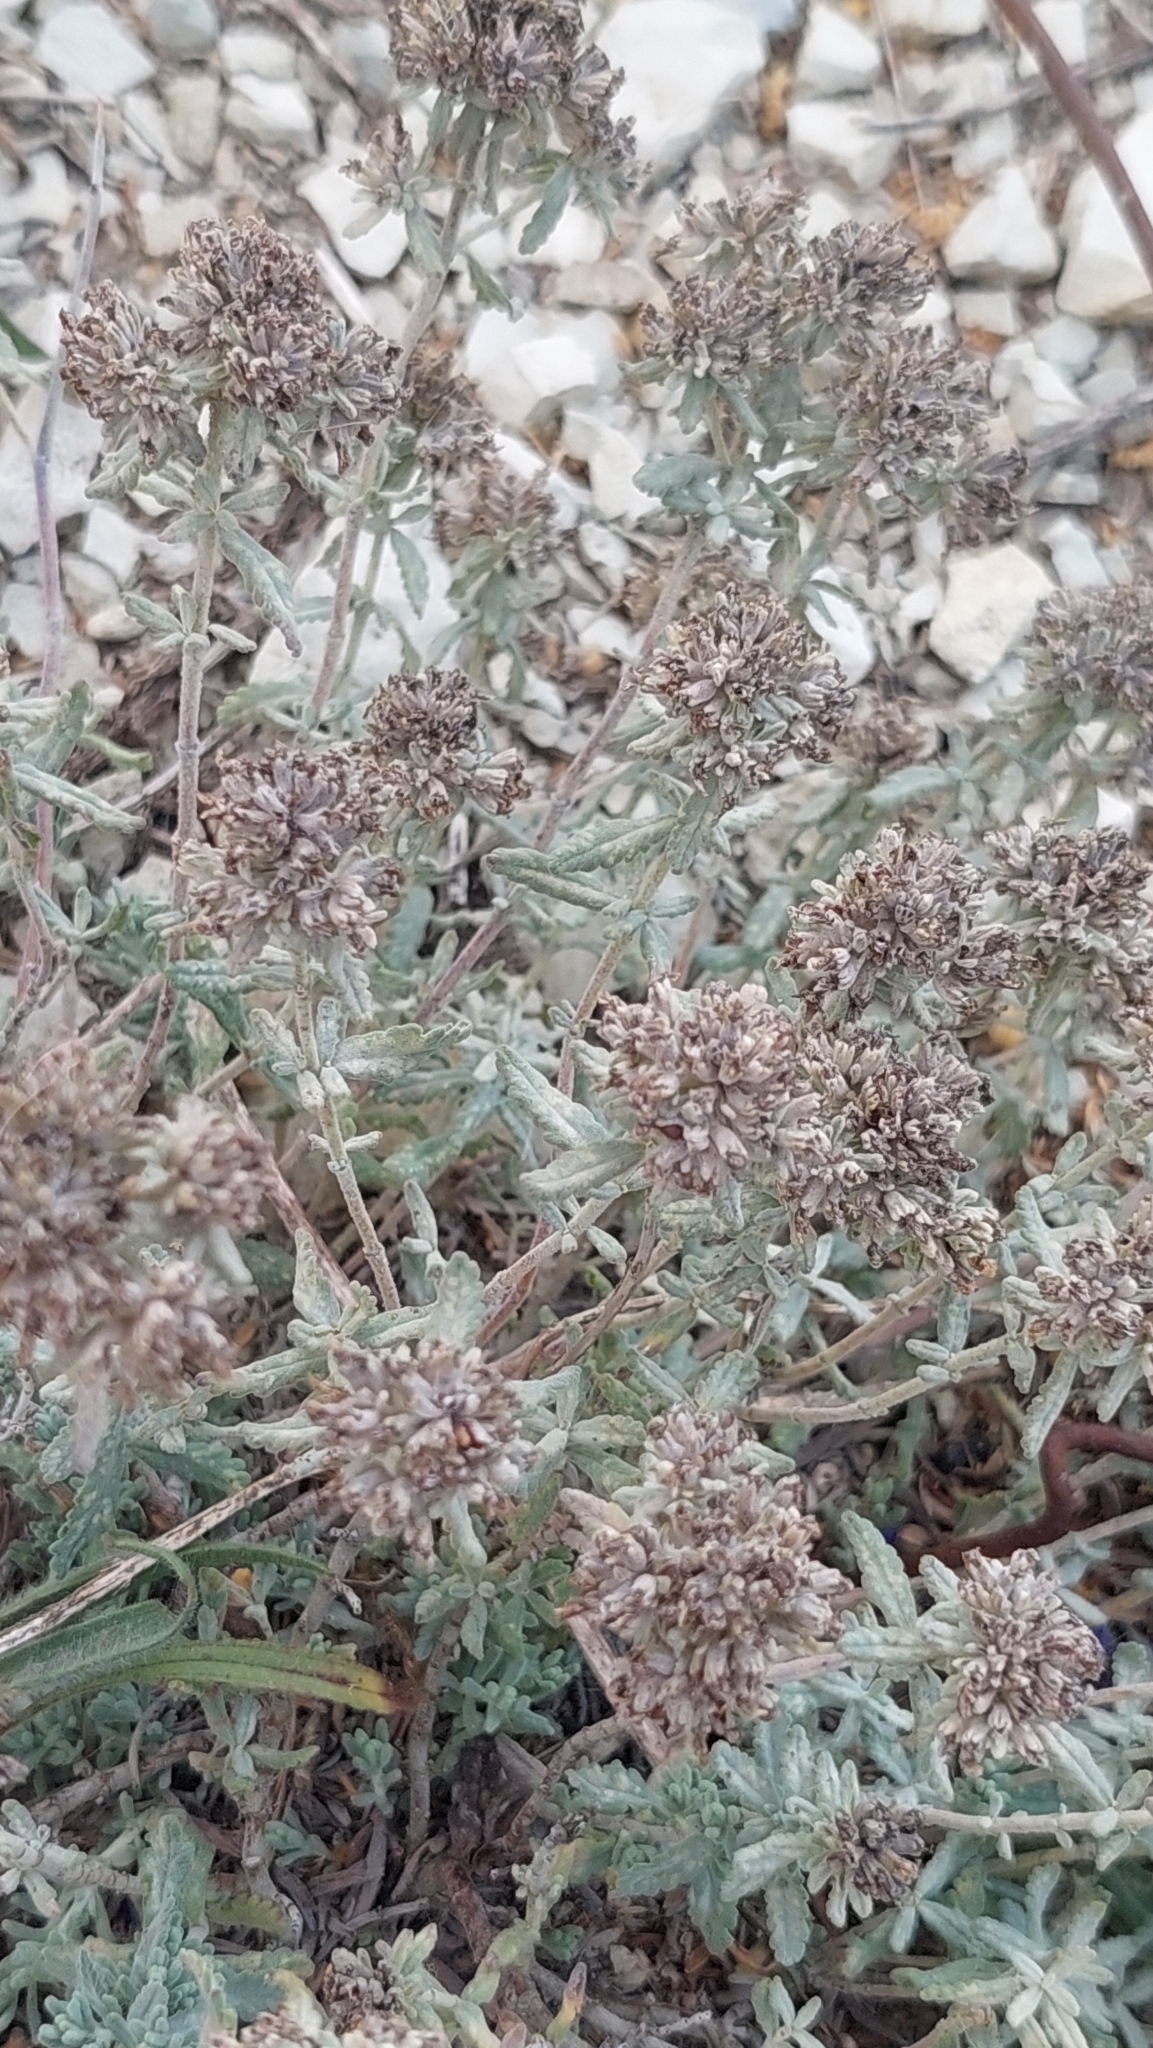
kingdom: Plantae
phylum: Tracheophyta
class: Magnoliopsida
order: Lamiales
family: Lamiaceae
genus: Teucrium
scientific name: Teucrium polium
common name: Poley
